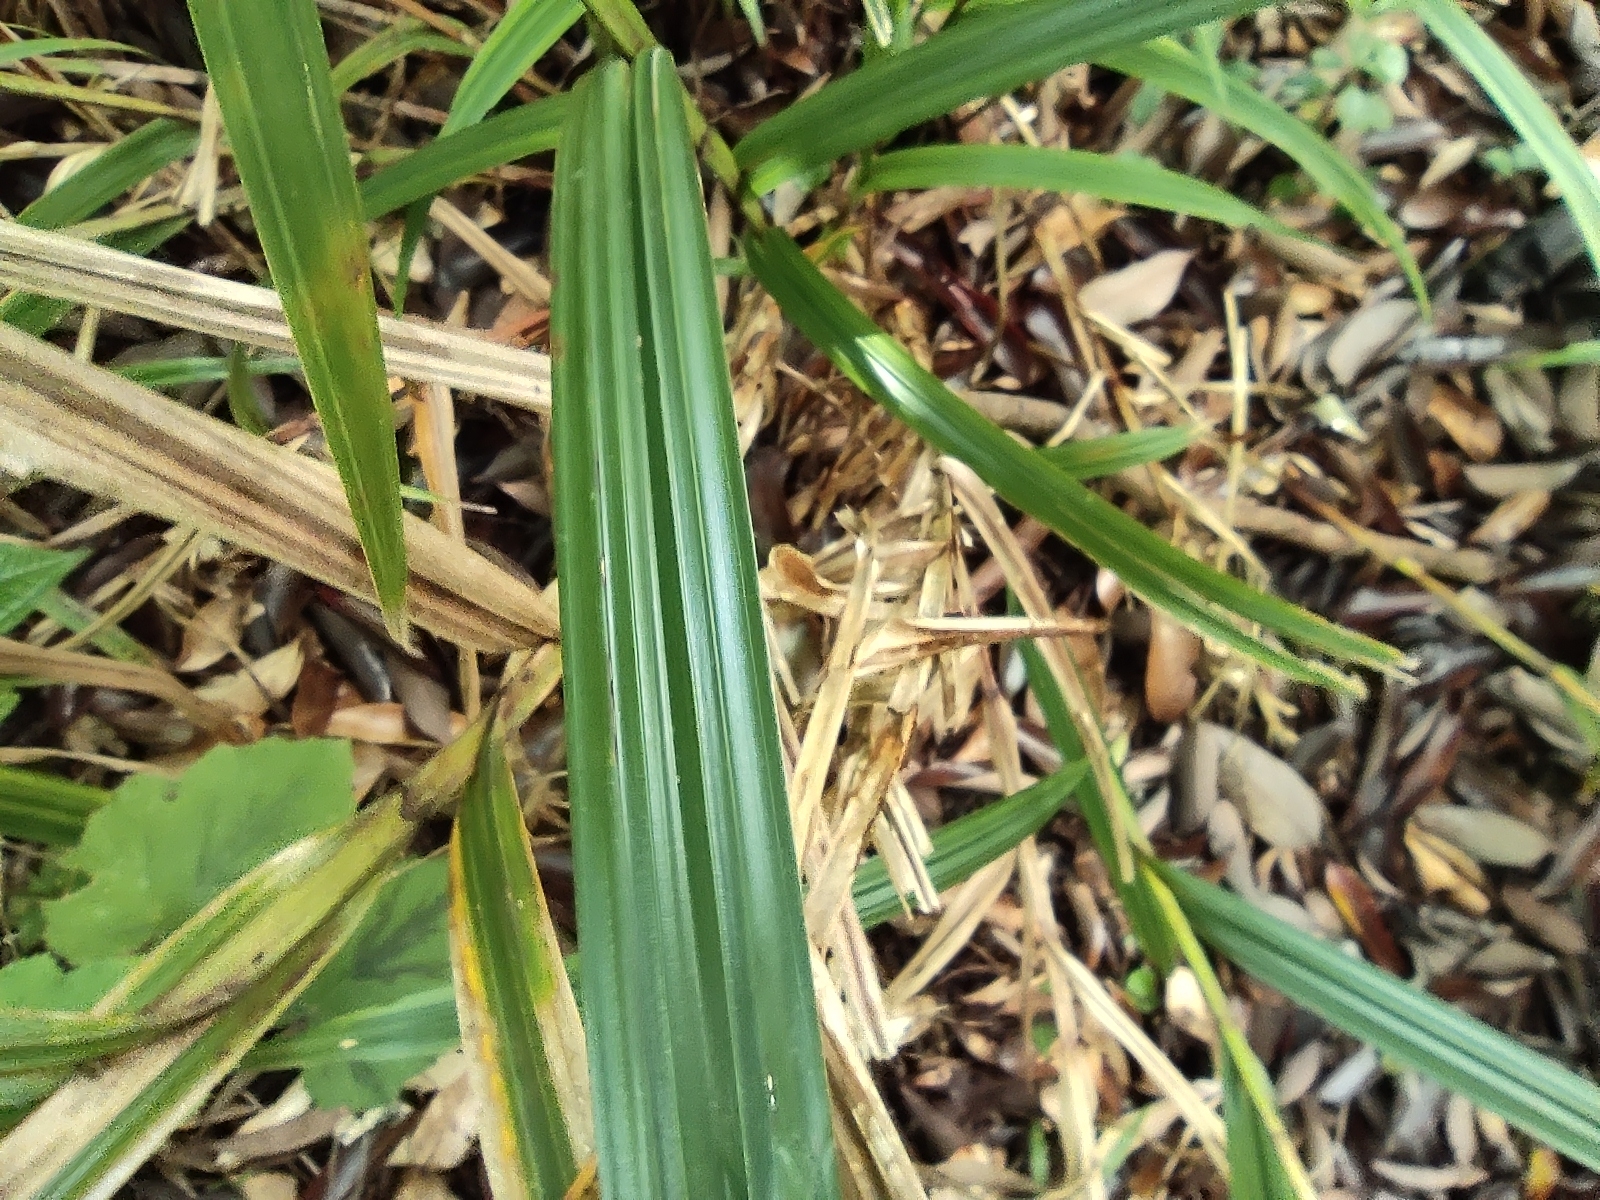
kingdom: Plantae
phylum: Tracheophyta
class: Liliopsida
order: Poales
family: Cyperaceae
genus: Scleria
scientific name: Scleria gaertneri
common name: Cortadera blanca
